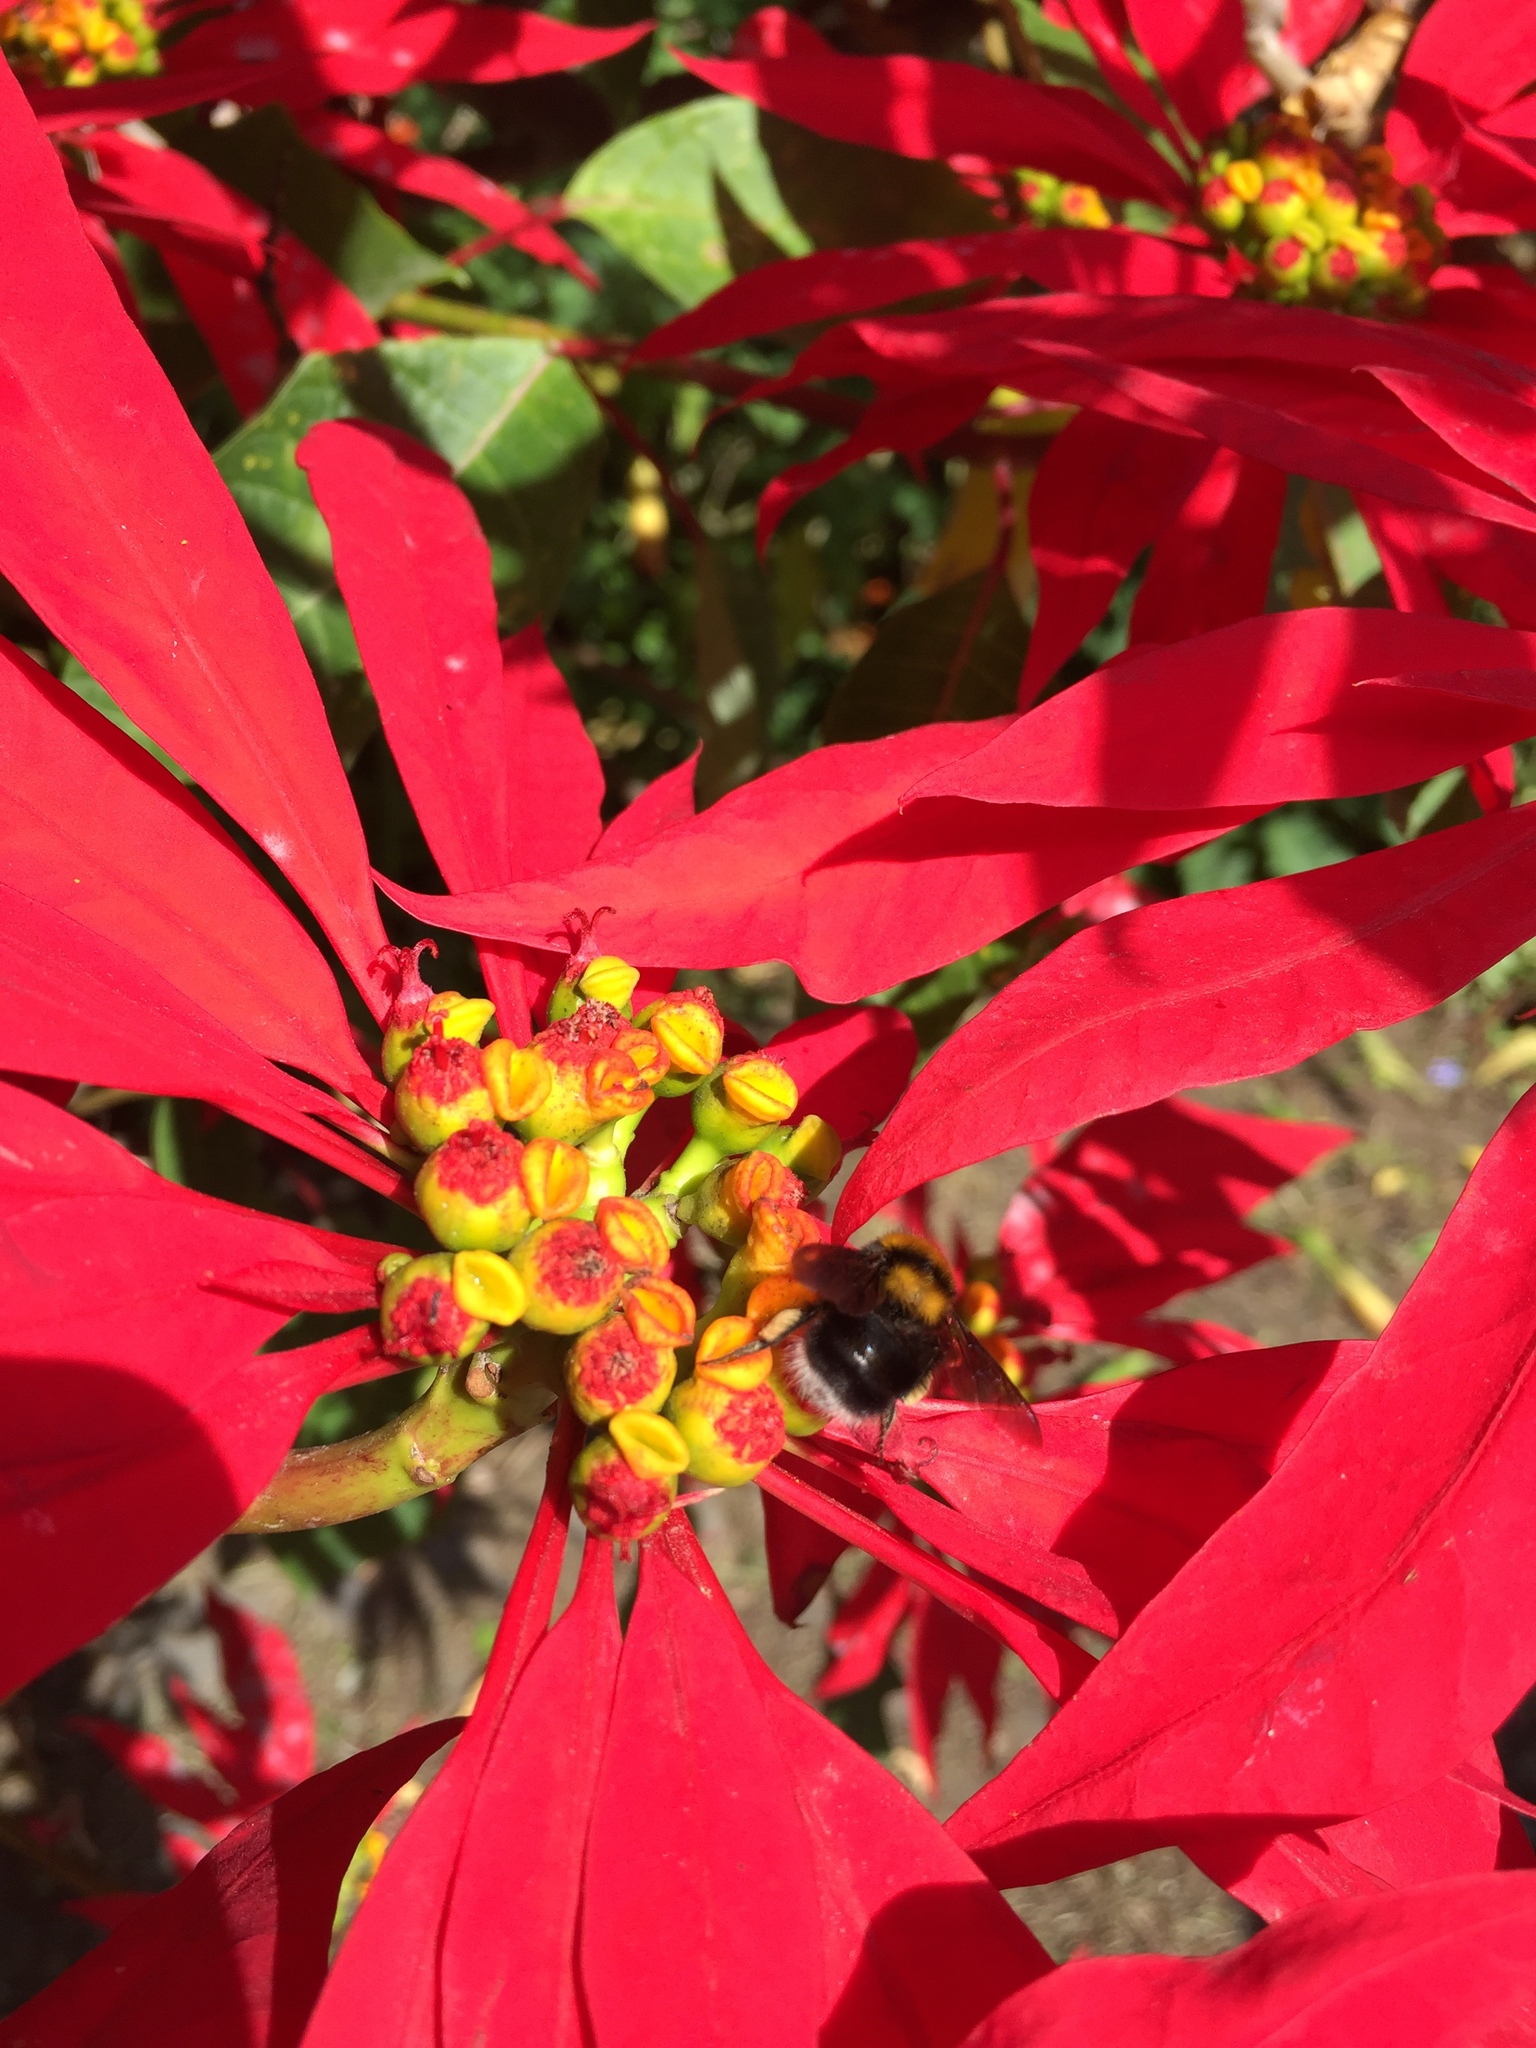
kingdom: Animalia
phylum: Arthropoda
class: Insecta
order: Hymenoptera
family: Apidae
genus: Bombus
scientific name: Bombus hortulanus
